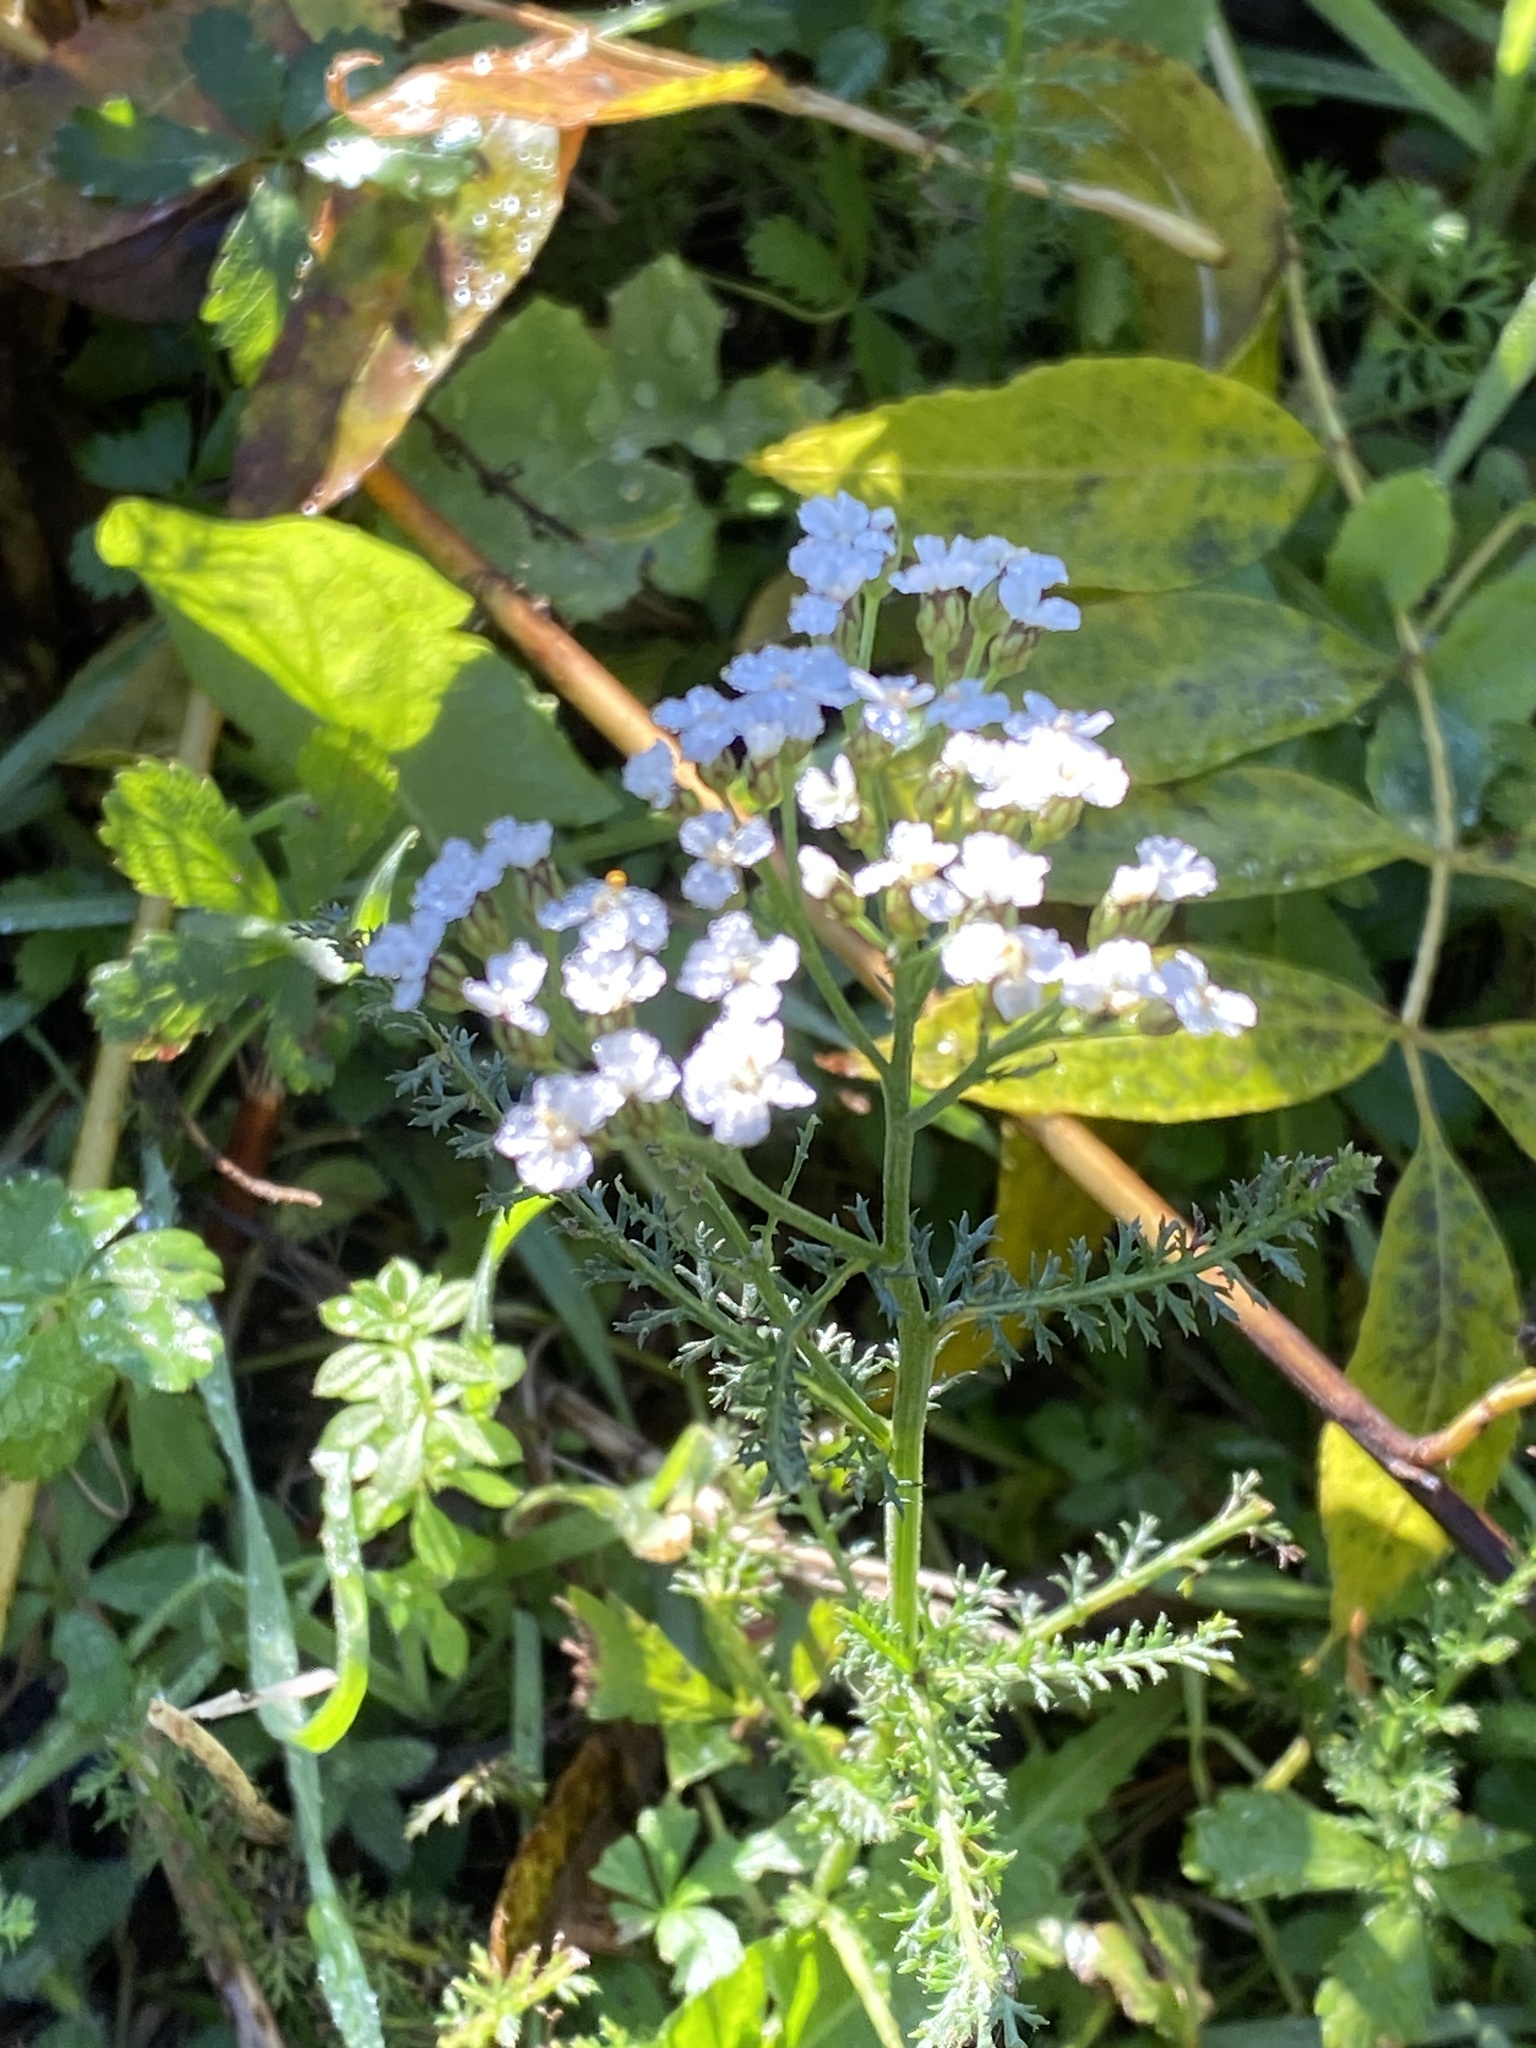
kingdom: Plantae
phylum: Tracheophyta
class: Magnoliopsida
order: Asterales
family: Asteraceae
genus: Achillea
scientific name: Achillea millefolium
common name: Yarrow
